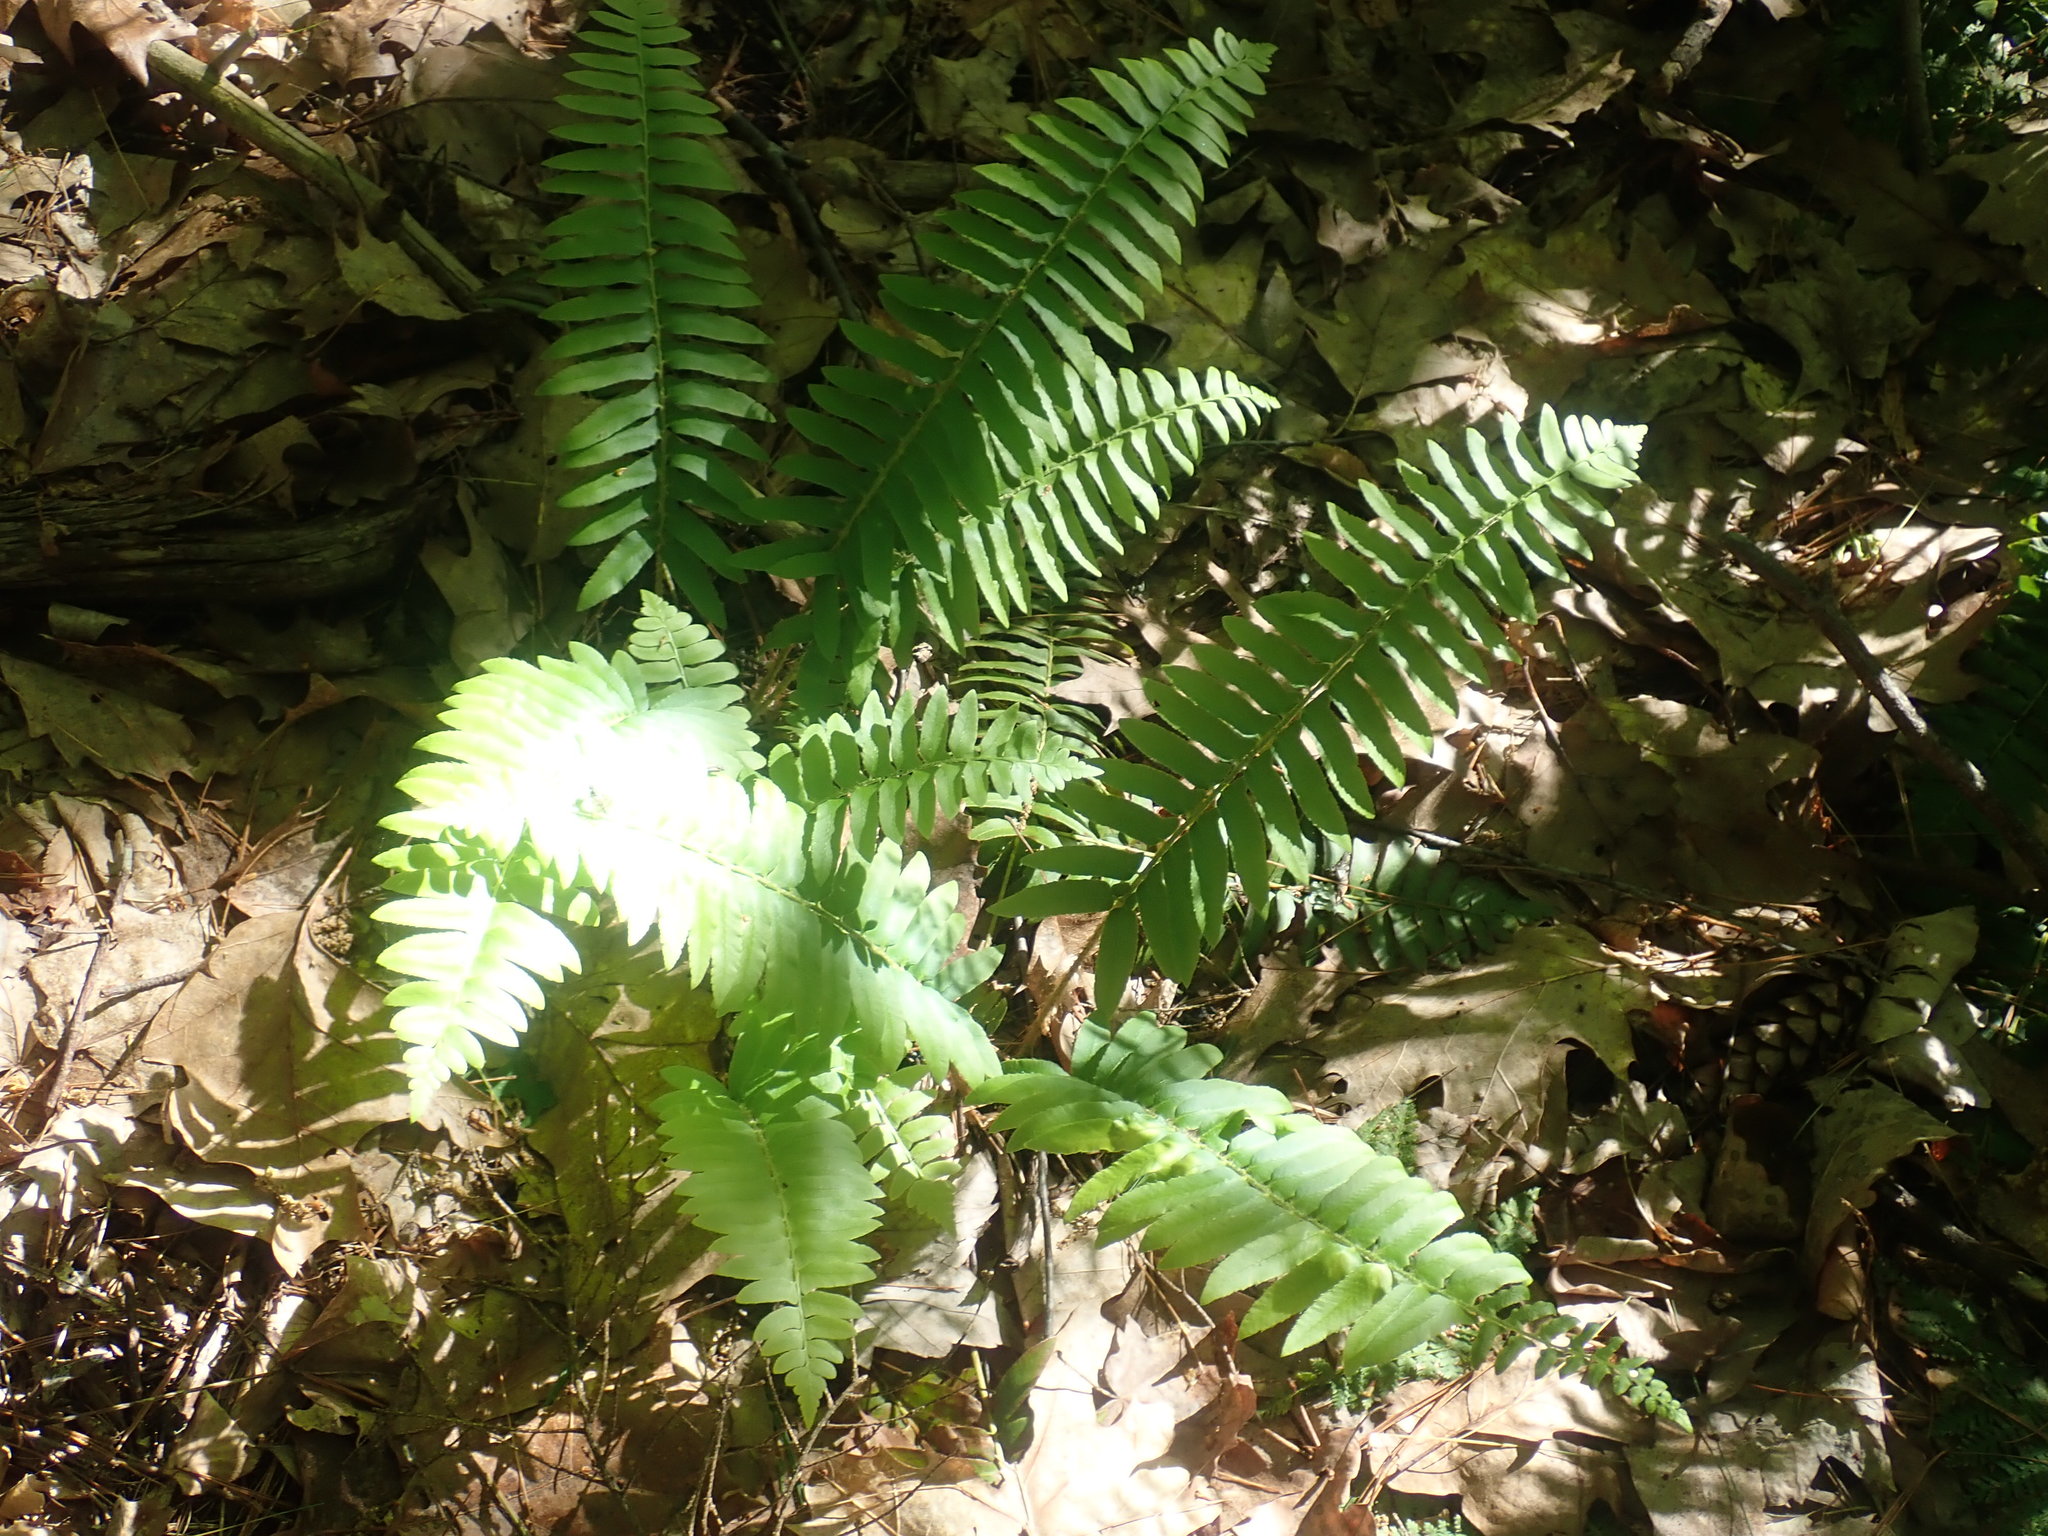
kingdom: Plantae
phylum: Tracheophyta
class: Polypodiopsida
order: Polypodiales
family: Dryopteridaceae
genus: Polystichum
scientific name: Polystichum acrostichoides
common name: Christmas fern
